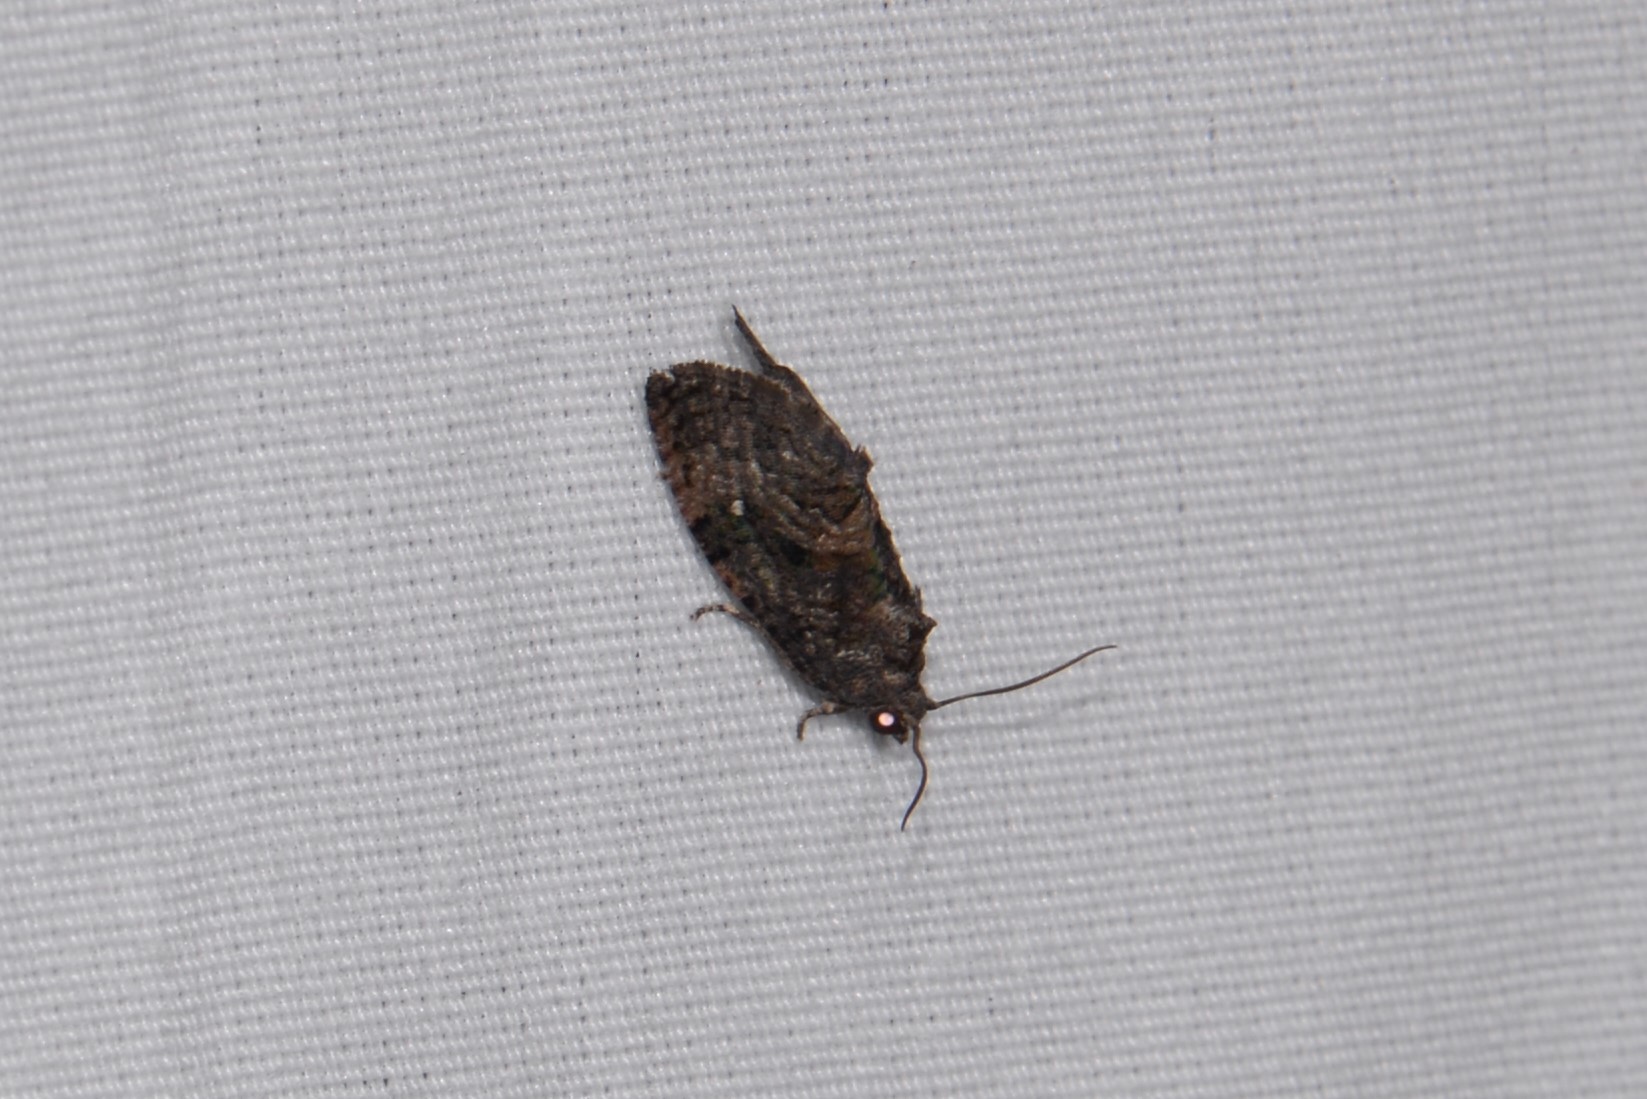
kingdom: Animalia
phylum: Arthropoda
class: Insecta
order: Lepidoptera
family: Tortricidae
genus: Gymnandrosoma
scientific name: Gymnandrosoma punctidiscanum
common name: Dotted ecdytolopha moth
